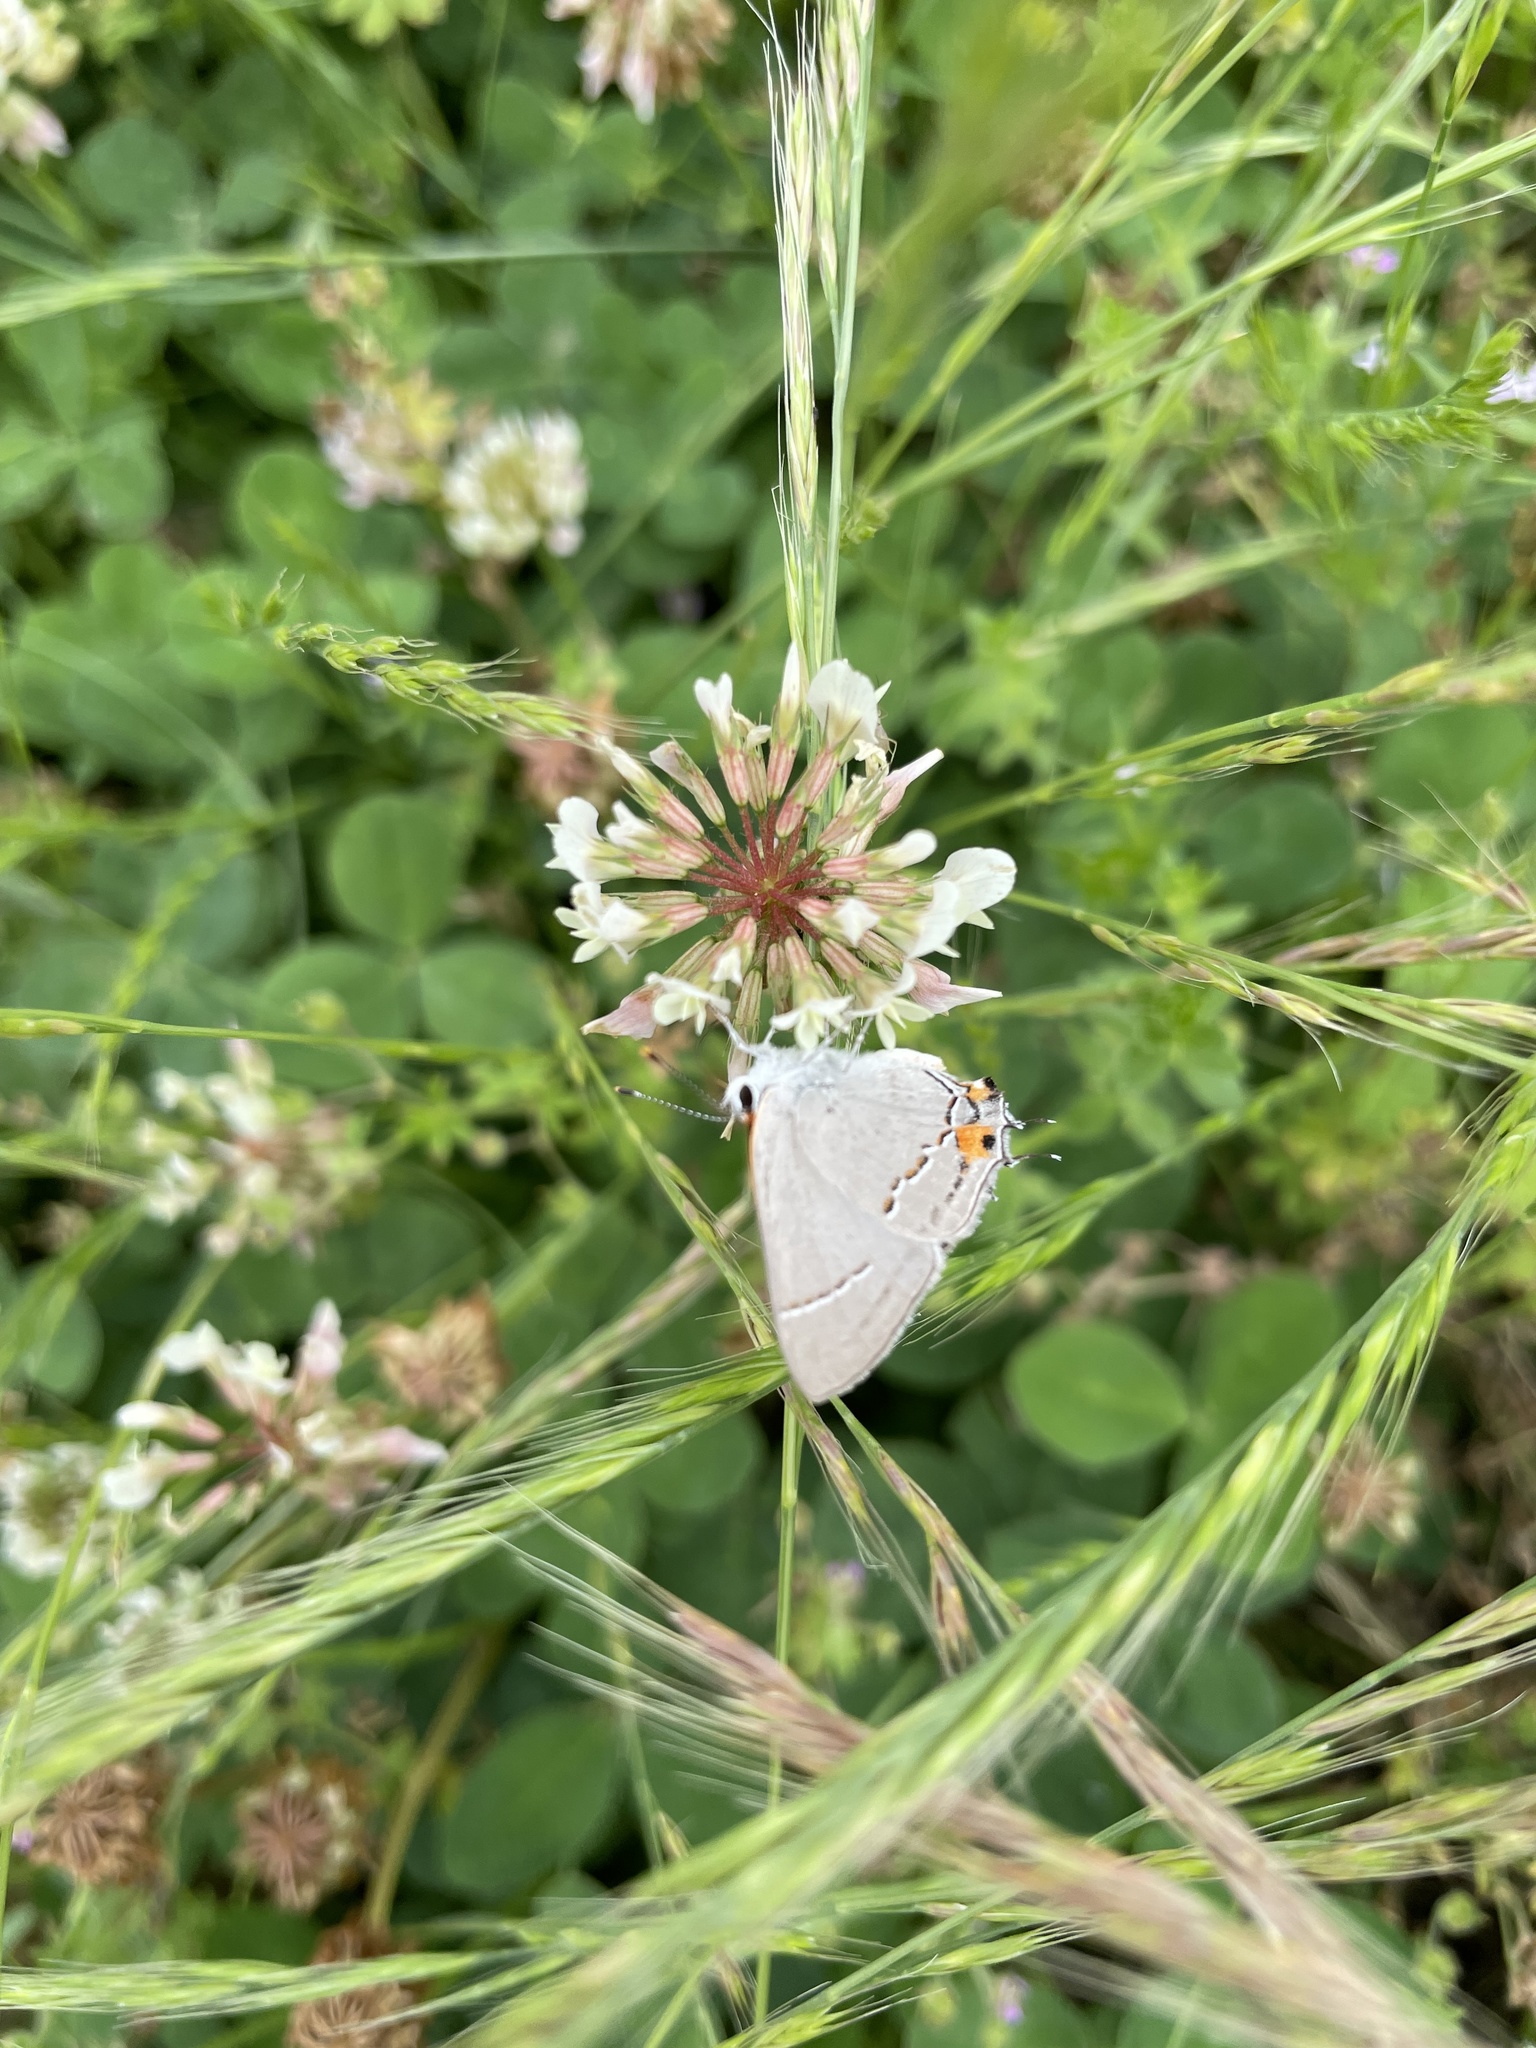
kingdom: Animalia
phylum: Arthropoda
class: Insecta
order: Lepidoptera
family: Lycaenidae
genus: Strymon
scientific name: Strymon melinus
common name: Gray hairstreak
